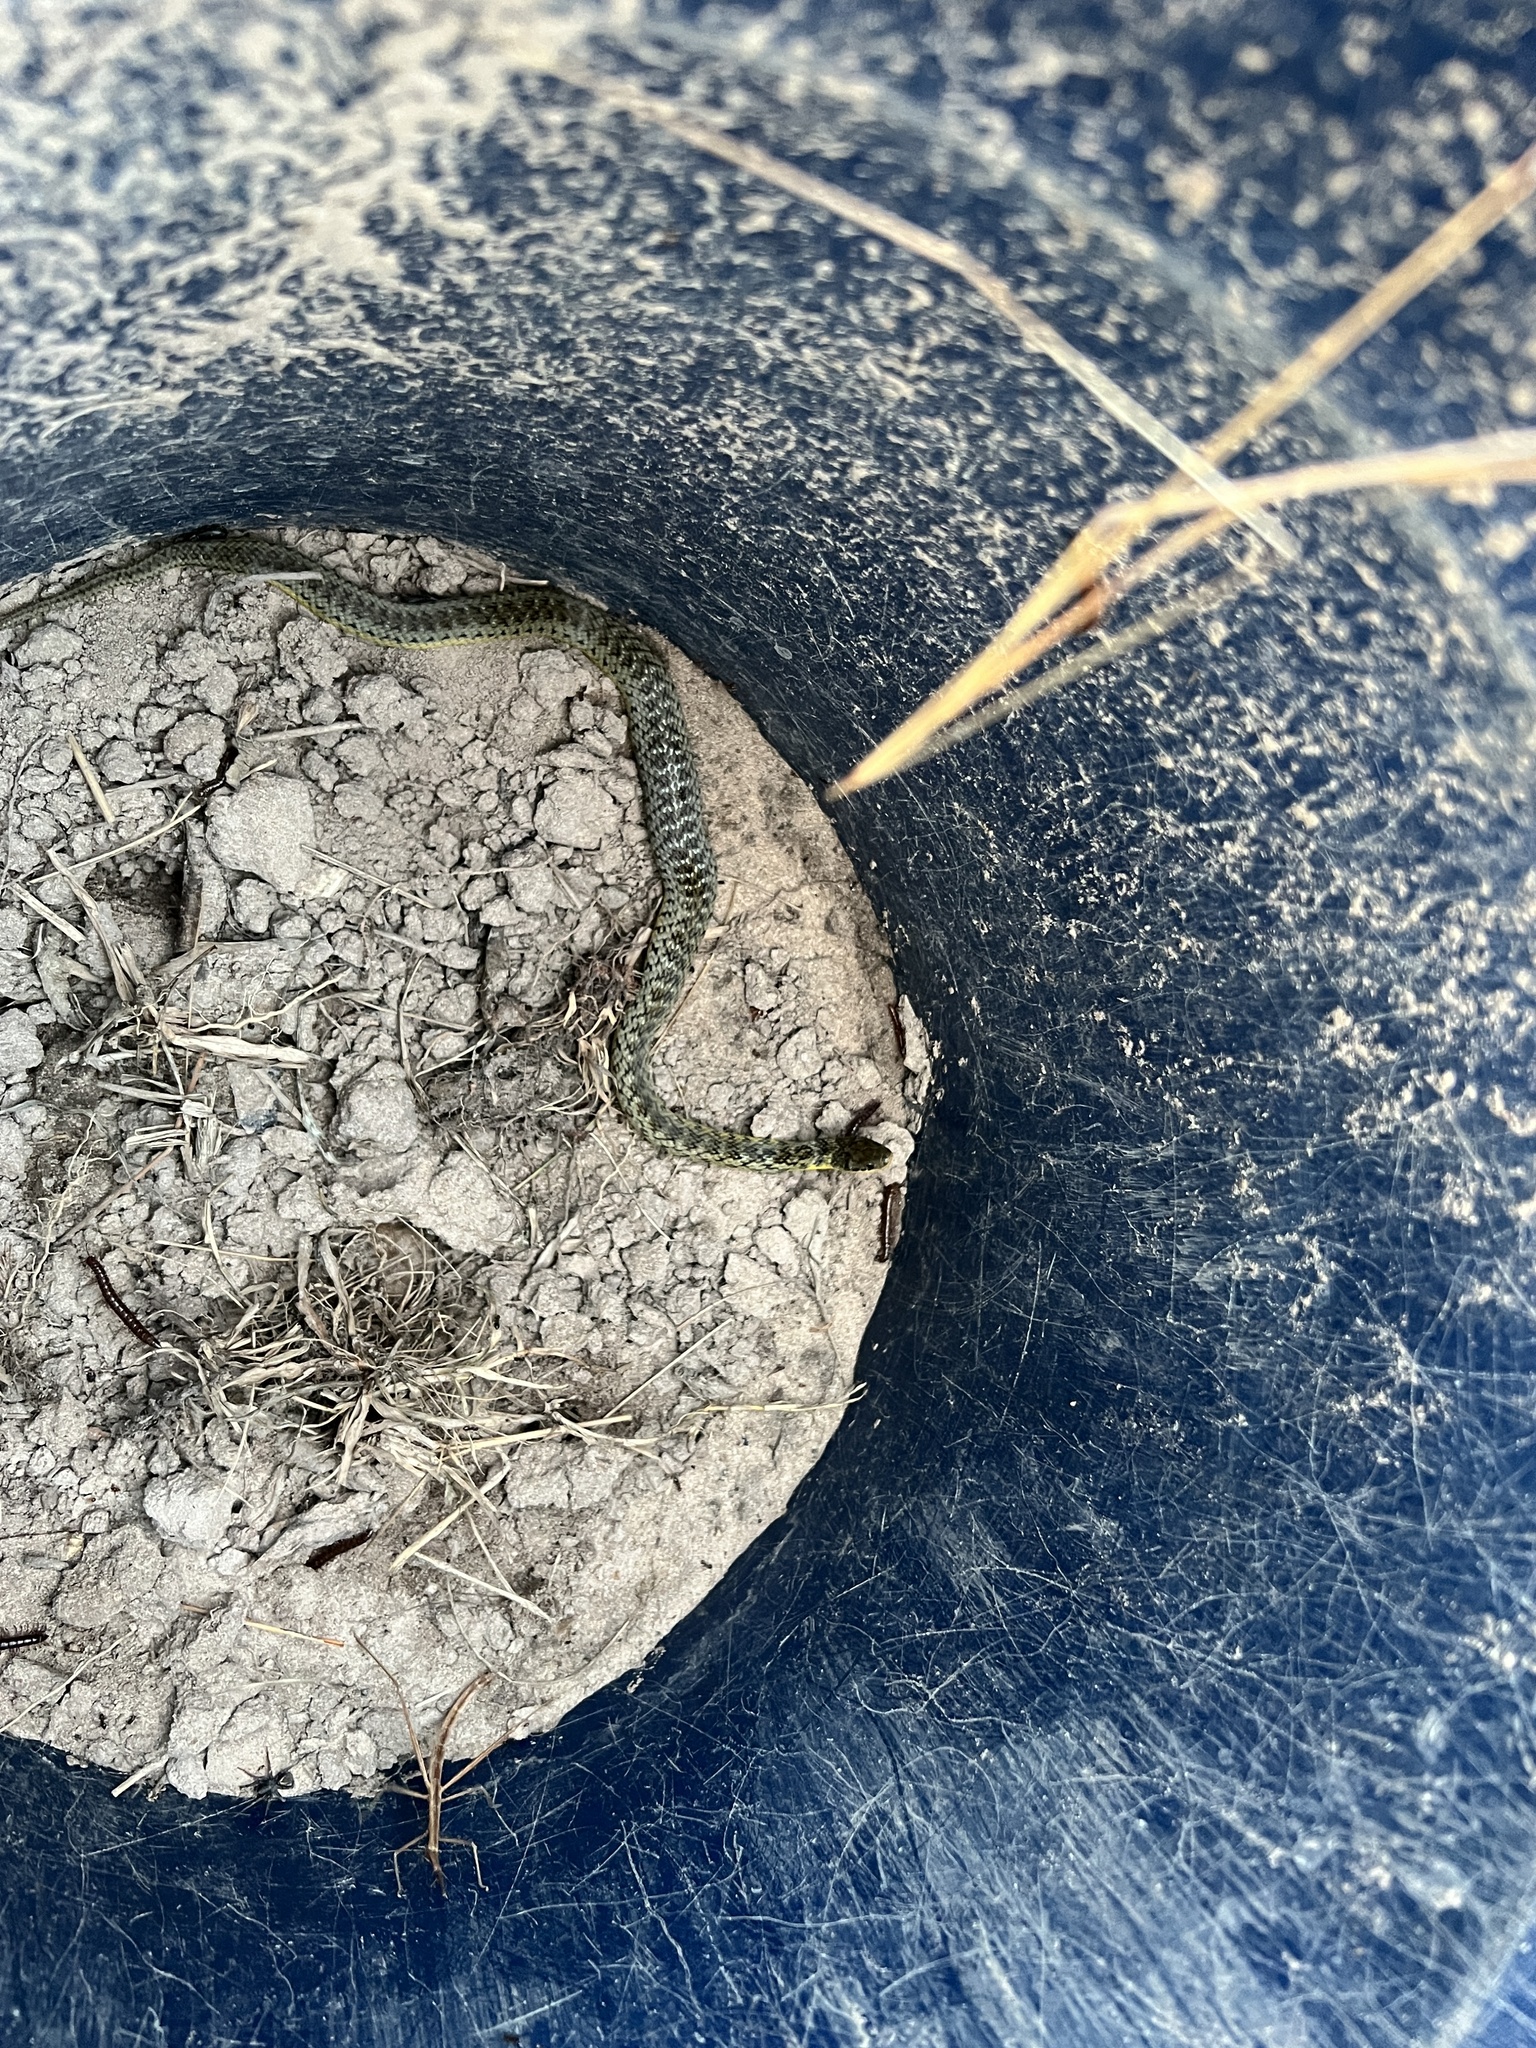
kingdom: Animalia
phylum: Chordata
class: Squamata
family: Colubridae
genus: Erythrolamprus
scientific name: Erythrolamprus poecilogyrus
